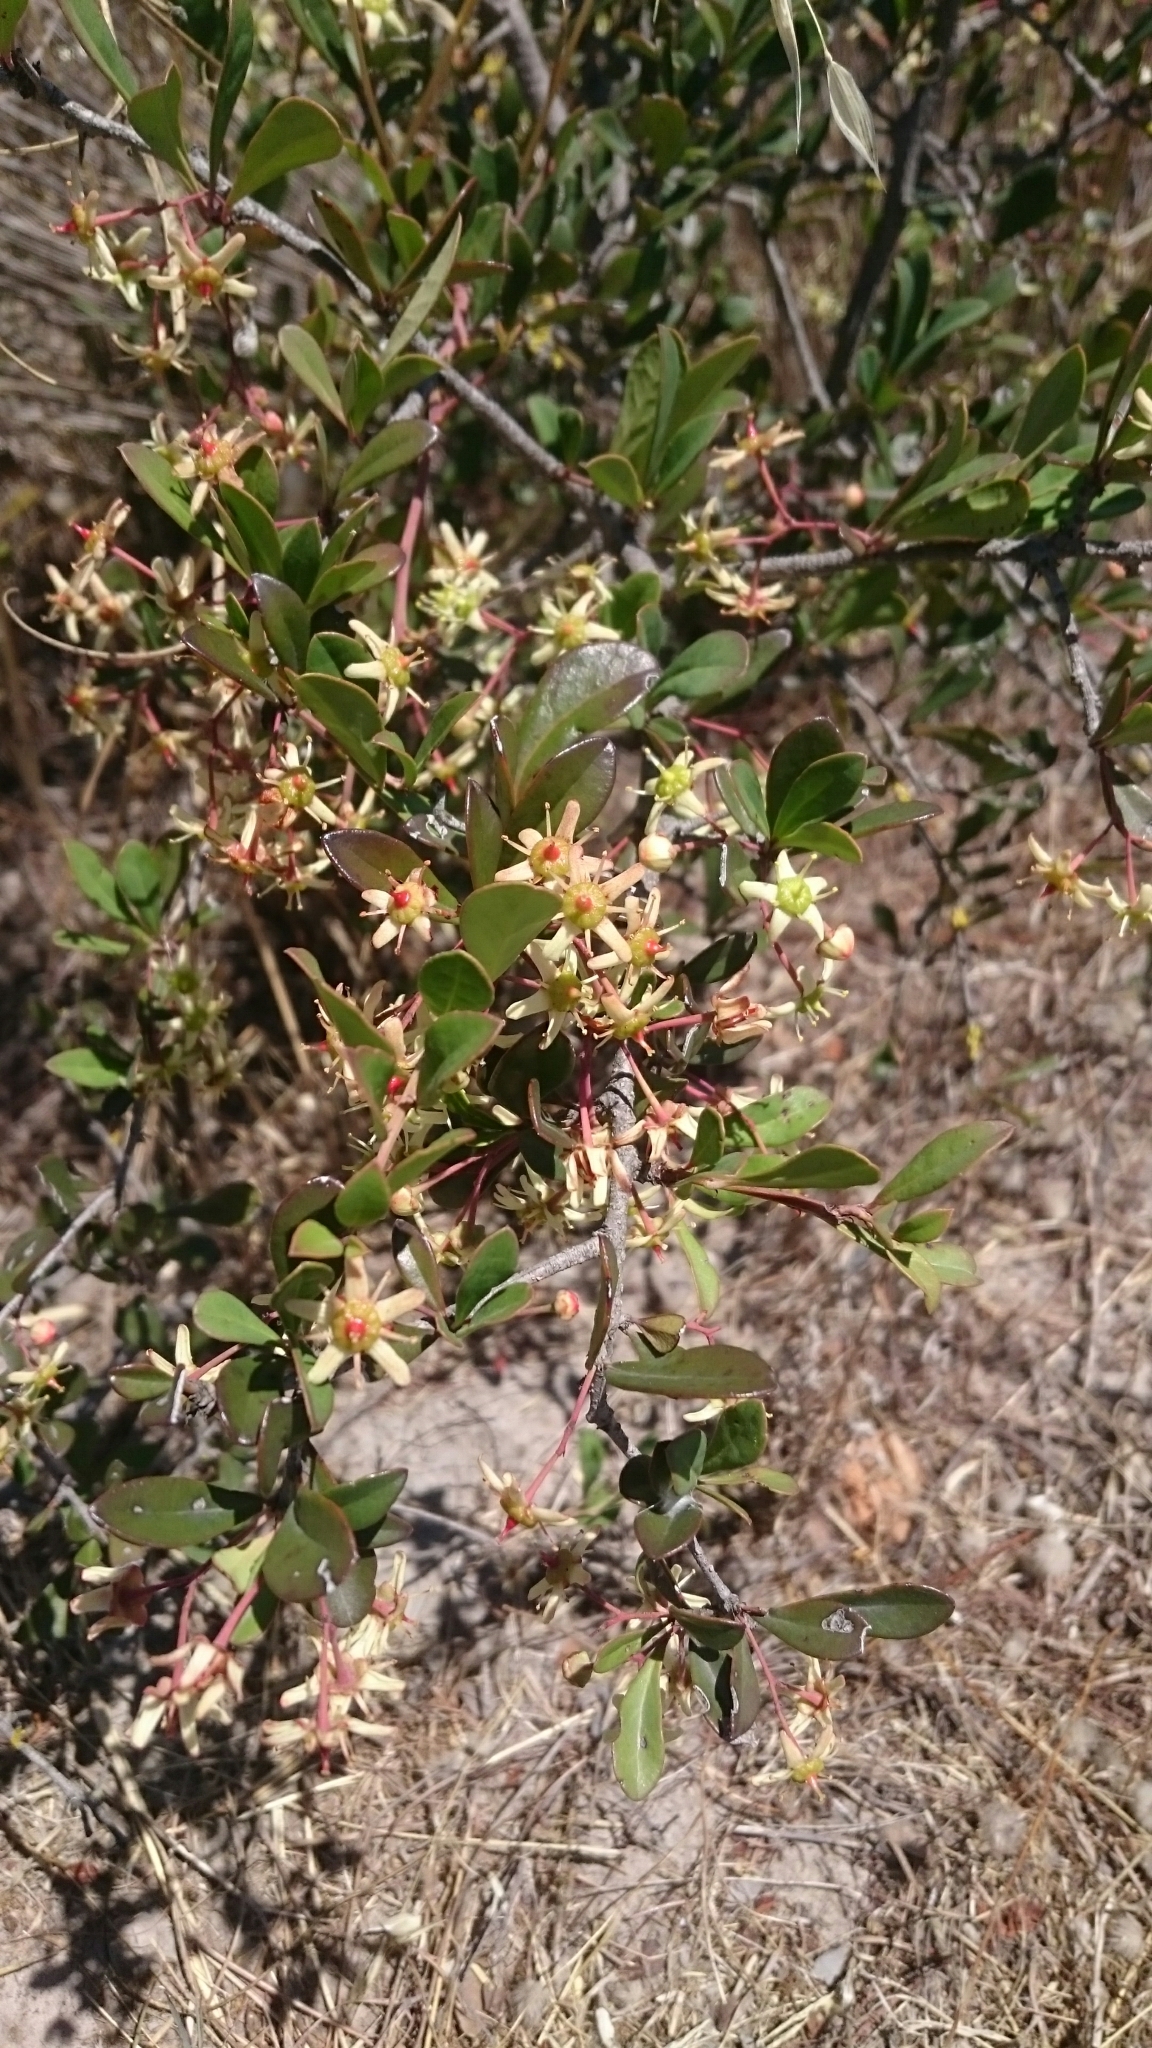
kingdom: Plantae
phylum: Tracheophyta
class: Magnoliopsida
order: Celastrales
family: Celastraceae
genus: Putterlickia
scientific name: Putterlickia pyracantha
